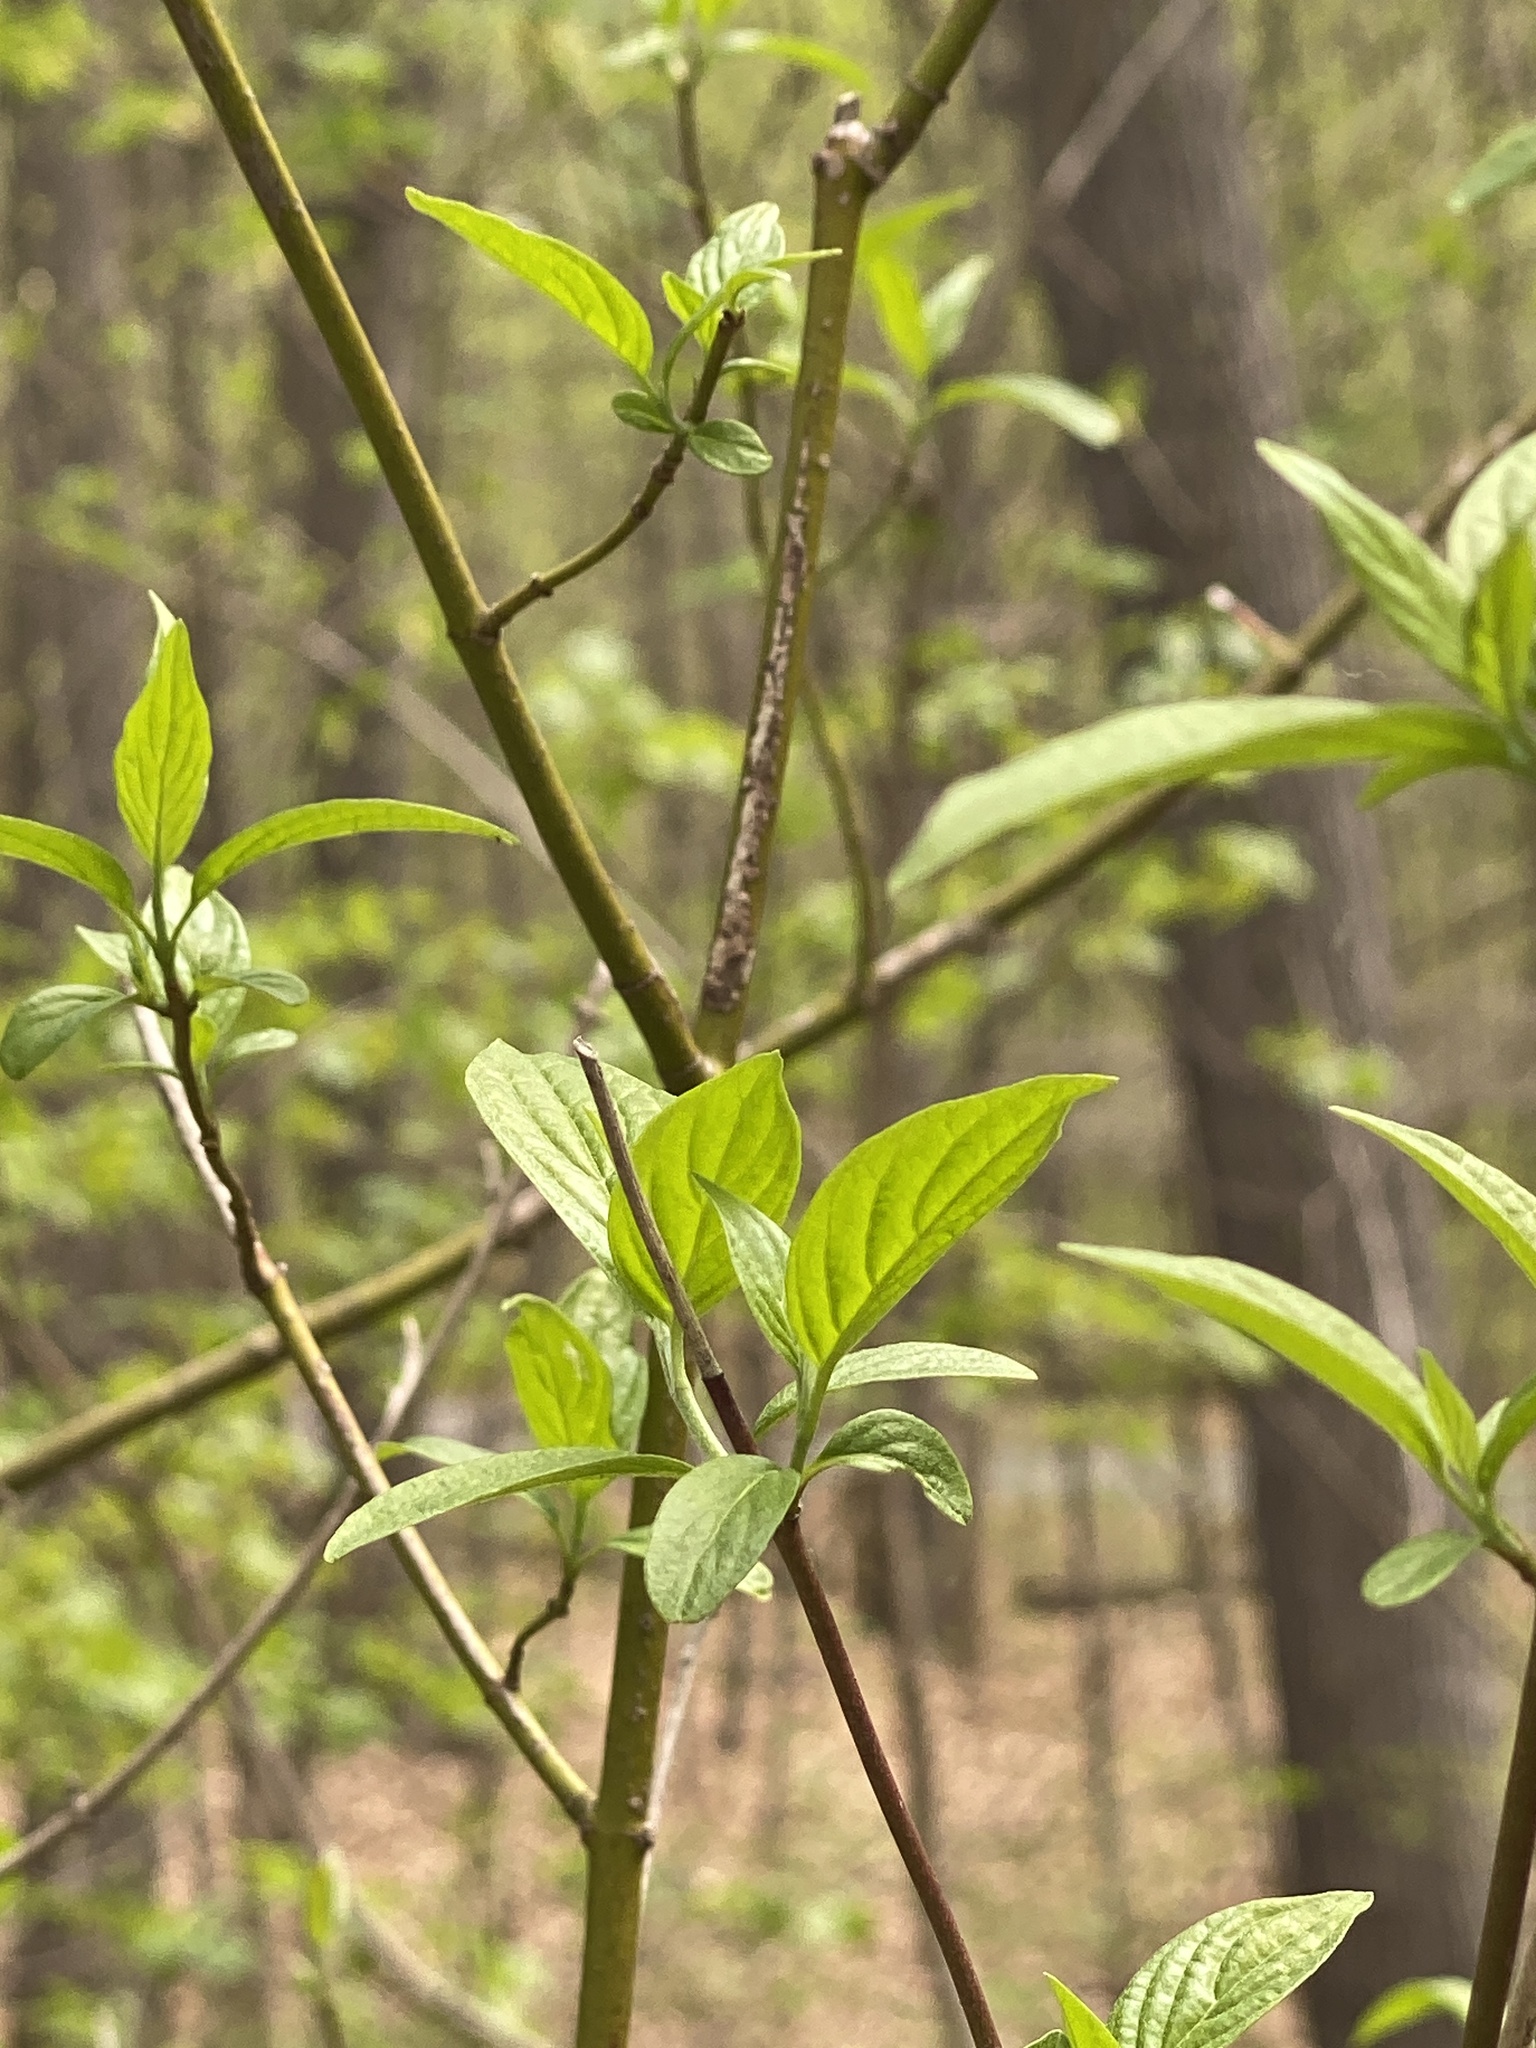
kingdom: Plantae
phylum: Tracheophyta
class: Magnoliopsida
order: Cornales
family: Cornaceae
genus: Cornus
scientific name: Cornus amomum
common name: Silky dogwood
